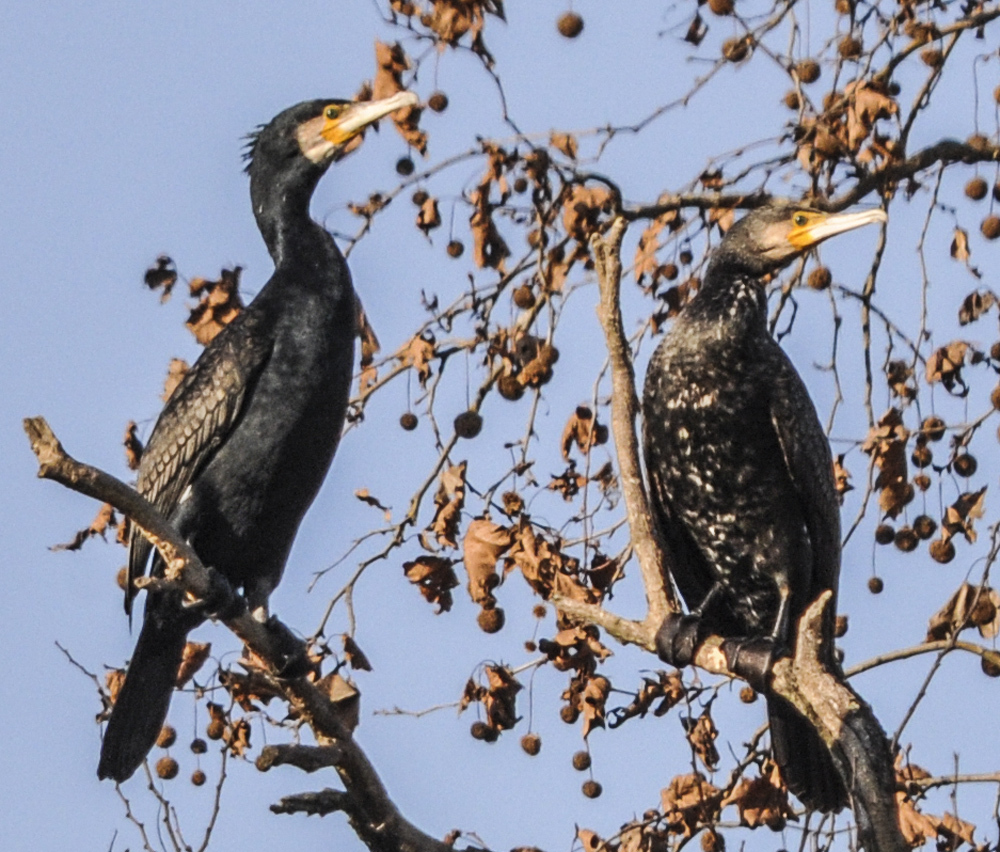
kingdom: Animalia
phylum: Chordata
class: Aves
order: Suliformes
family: Phalacrocoracidae
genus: Phalacrocorax
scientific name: Phalacrocorax carbo
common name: Great cormorant
